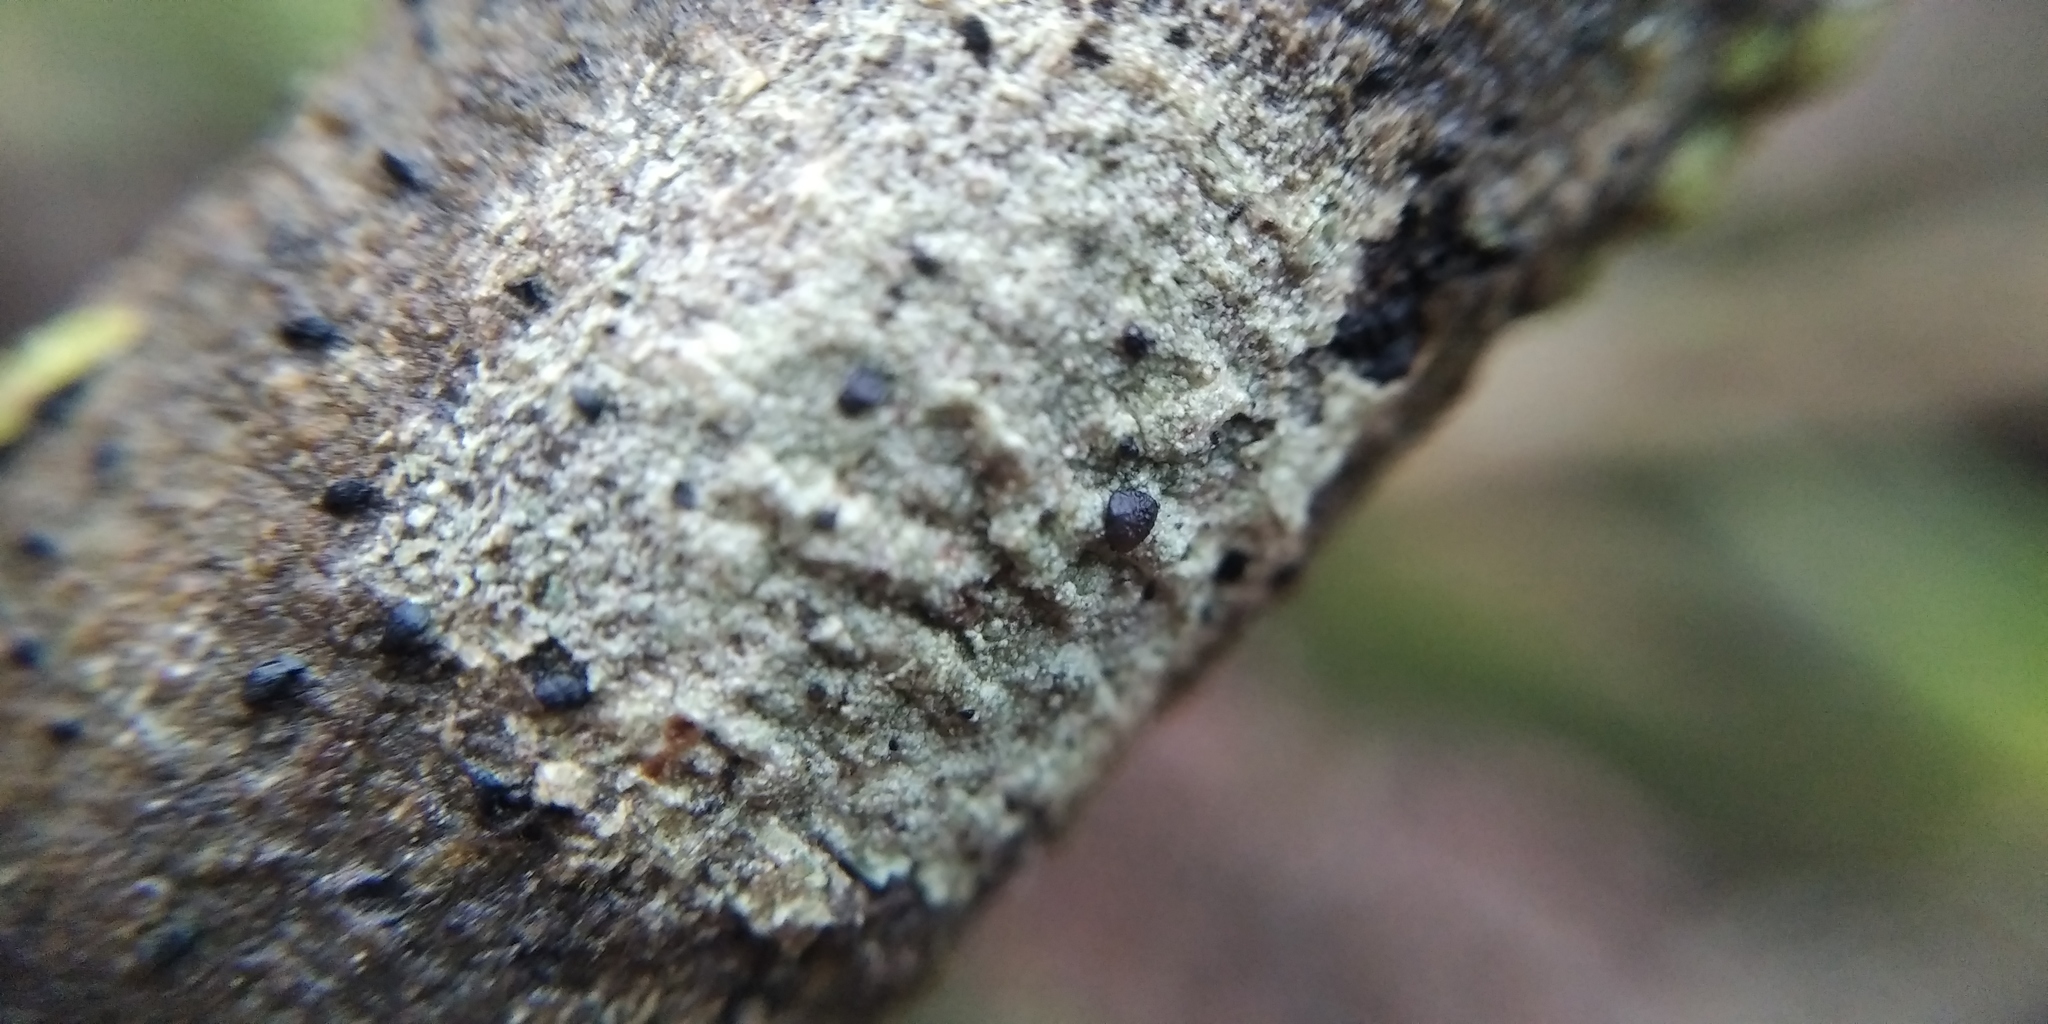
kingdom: Fungi
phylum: Ascomycota
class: Lecanoromycetes
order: Lecanorales
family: Lecanoraceae
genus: Lecidella
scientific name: Lecidella elaeochroma
